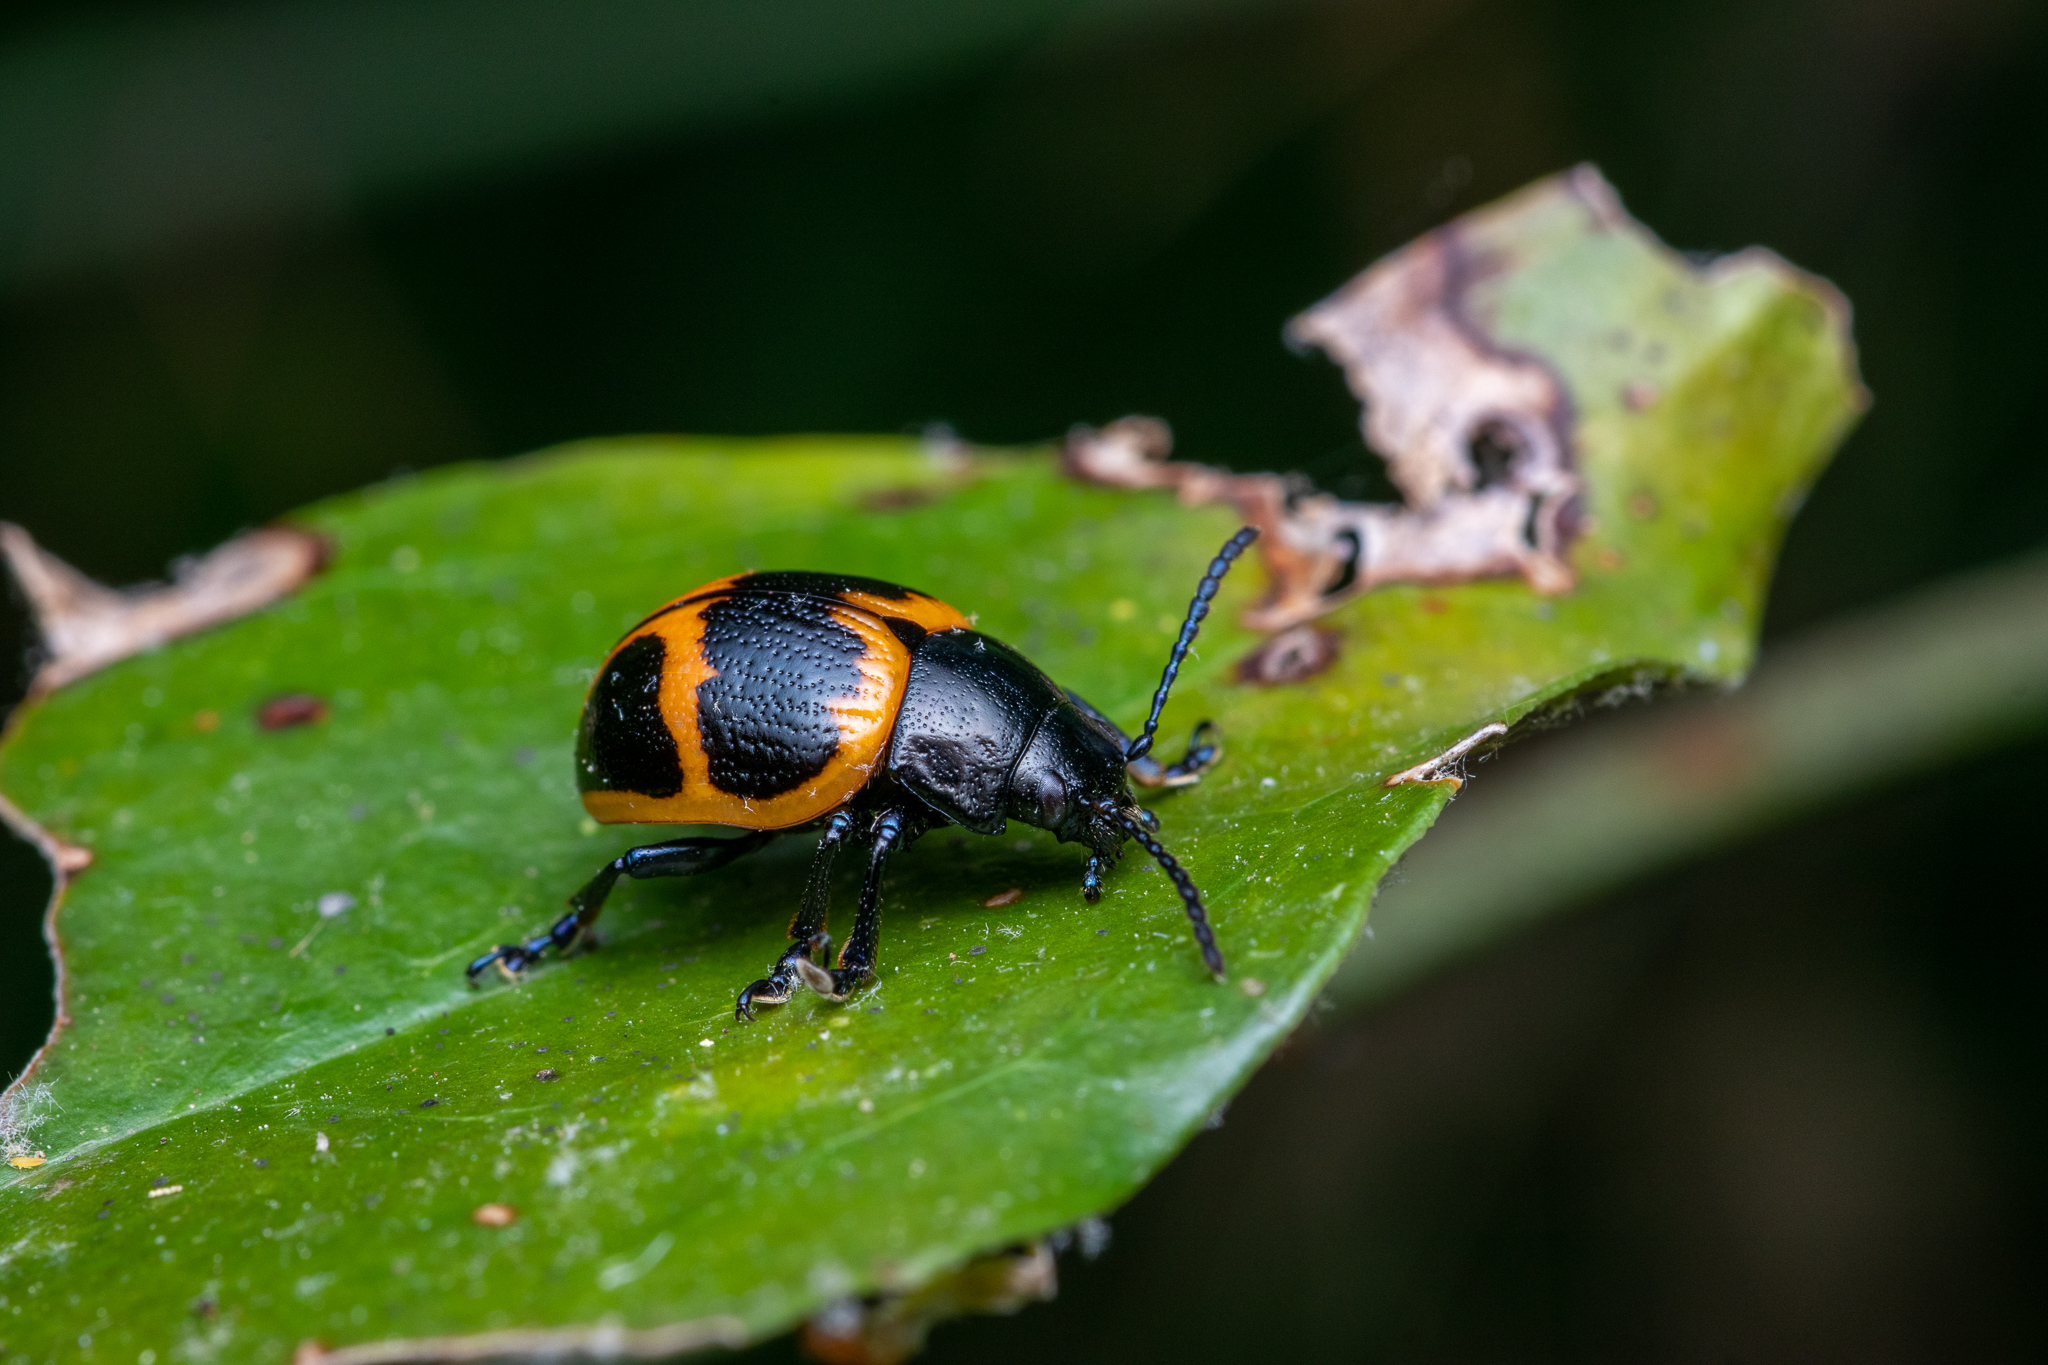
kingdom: Animalia
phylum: Arthropoda
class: Insecta
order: Coleoptera
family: Chrysomelidae
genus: Labidomera
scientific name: Labidomera clivicollis
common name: Swamp milkweed leaf beetle
